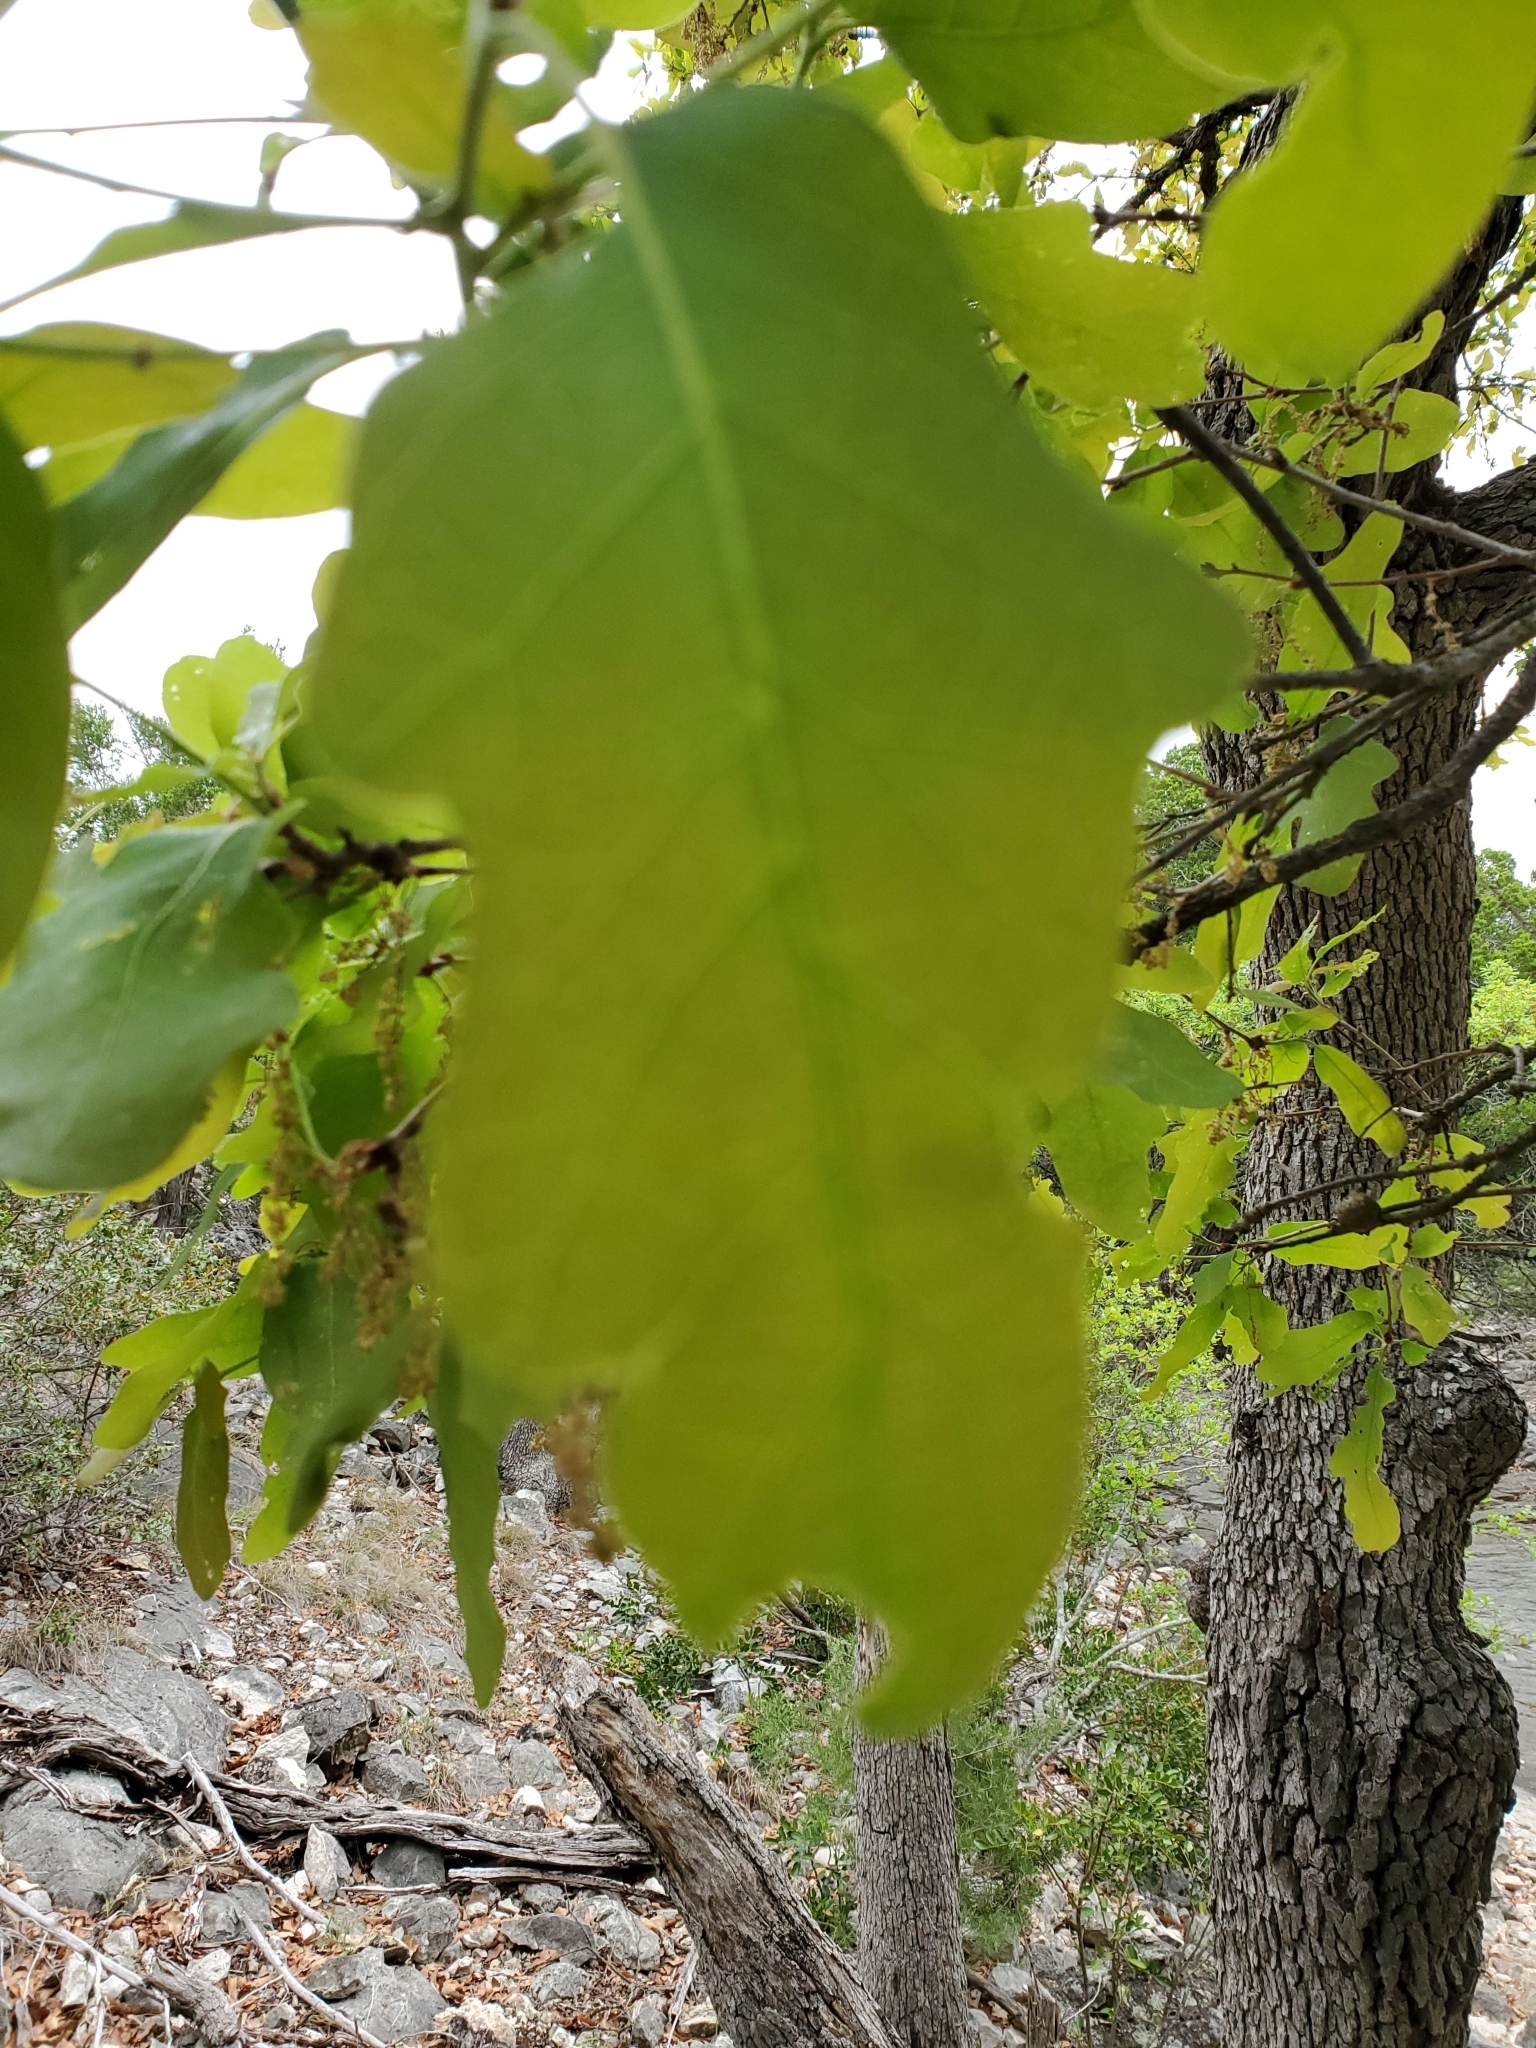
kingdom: Plantae
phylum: Tracheophyta
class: Magnoliopsida
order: Fagales
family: Fagaceae
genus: Quercus
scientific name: Quercus laceyi
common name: Lacey oak
